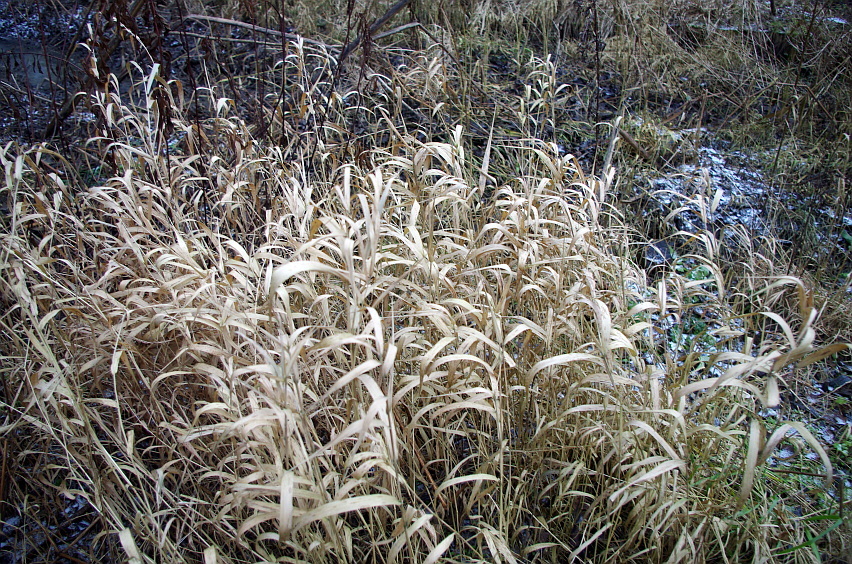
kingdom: Plantae
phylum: Tracheophyta
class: Liliopsida
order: Poales
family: Poaceae
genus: Phalaris
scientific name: Phalaris arundinacea
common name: Reed canary-grass
